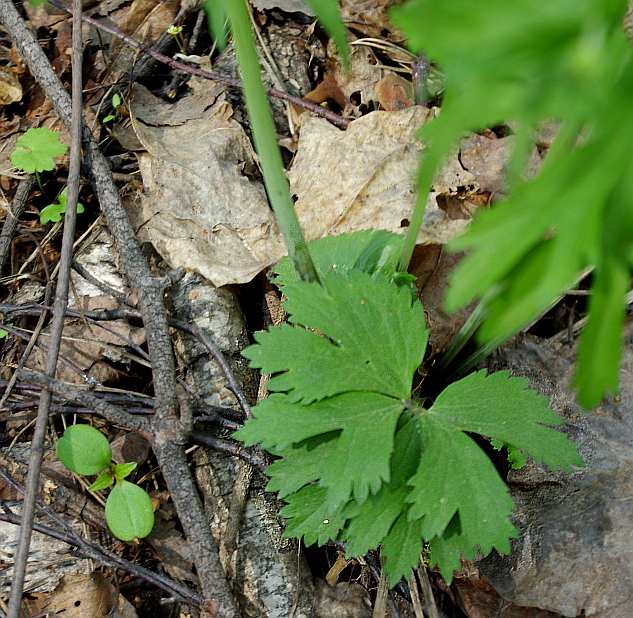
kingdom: Plantae
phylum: Tracheophyta
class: Magnoliopsida
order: Ranunculales
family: Ranunculaceae
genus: Ranunculus
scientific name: Ranunculus cassubicus
